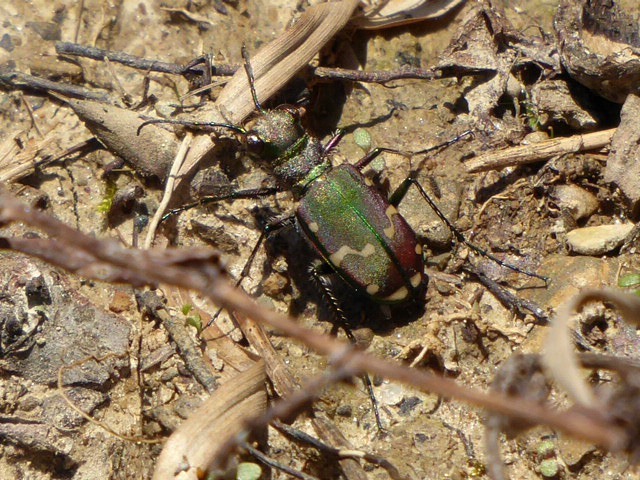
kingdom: Animalia
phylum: Arthropoda
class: Insecta
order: Coleoptera
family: Carabidae
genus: Cicindela
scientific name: Cicindela limbalis
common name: Common claybank tiger beetle
